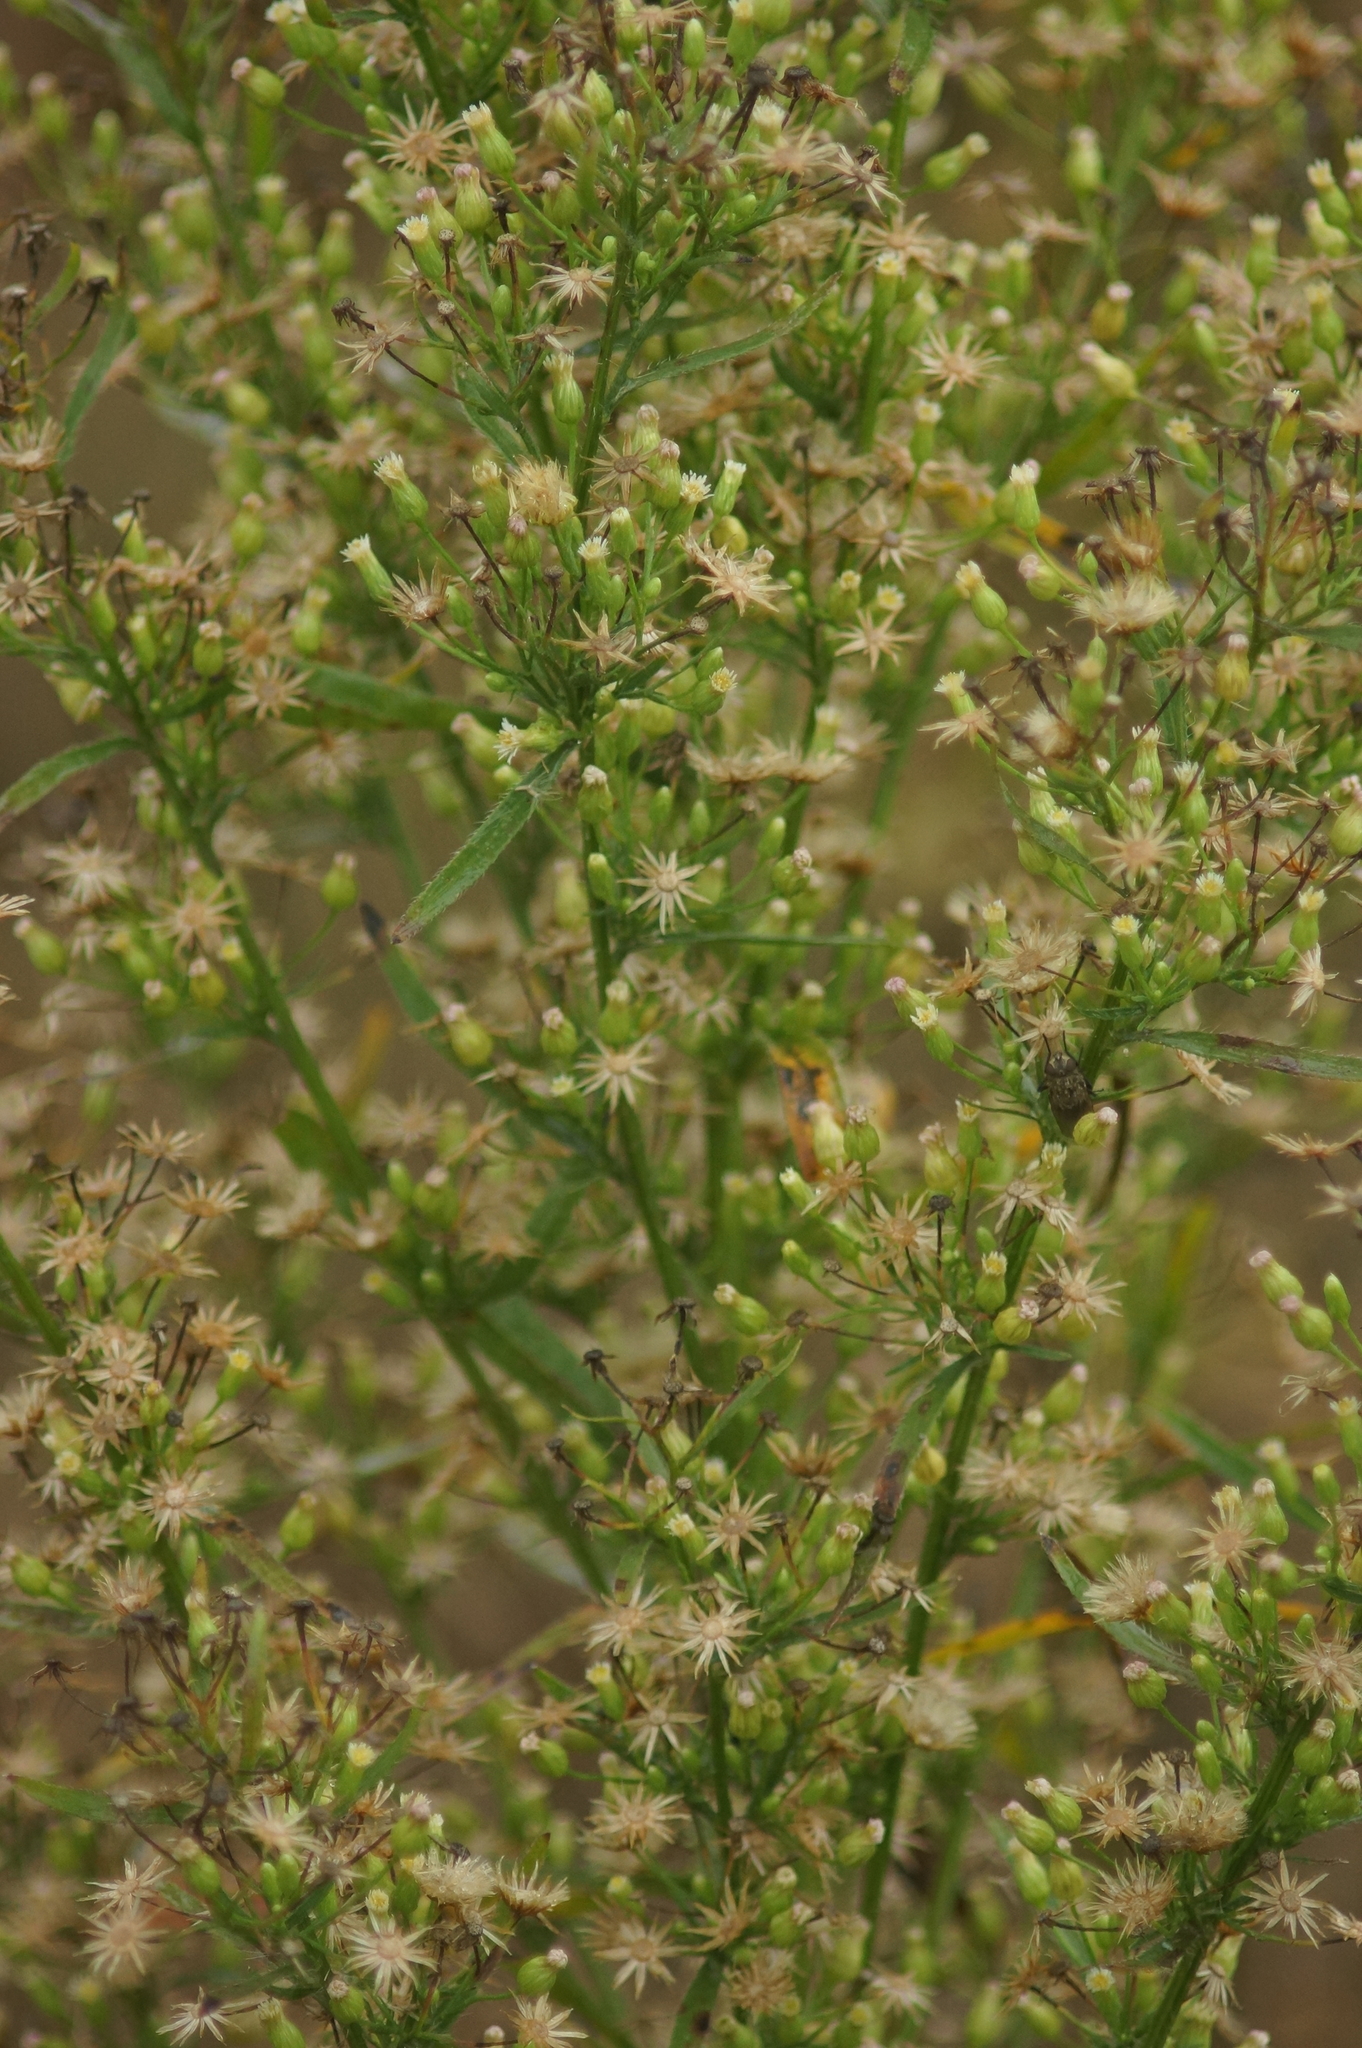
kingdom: Plantae
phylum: Tracheophyta
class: Magnoliopsida
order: Asterales
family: Asteraceae
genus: Erigeron
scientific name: Erigeron canadensis
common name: Canadian fleabane
